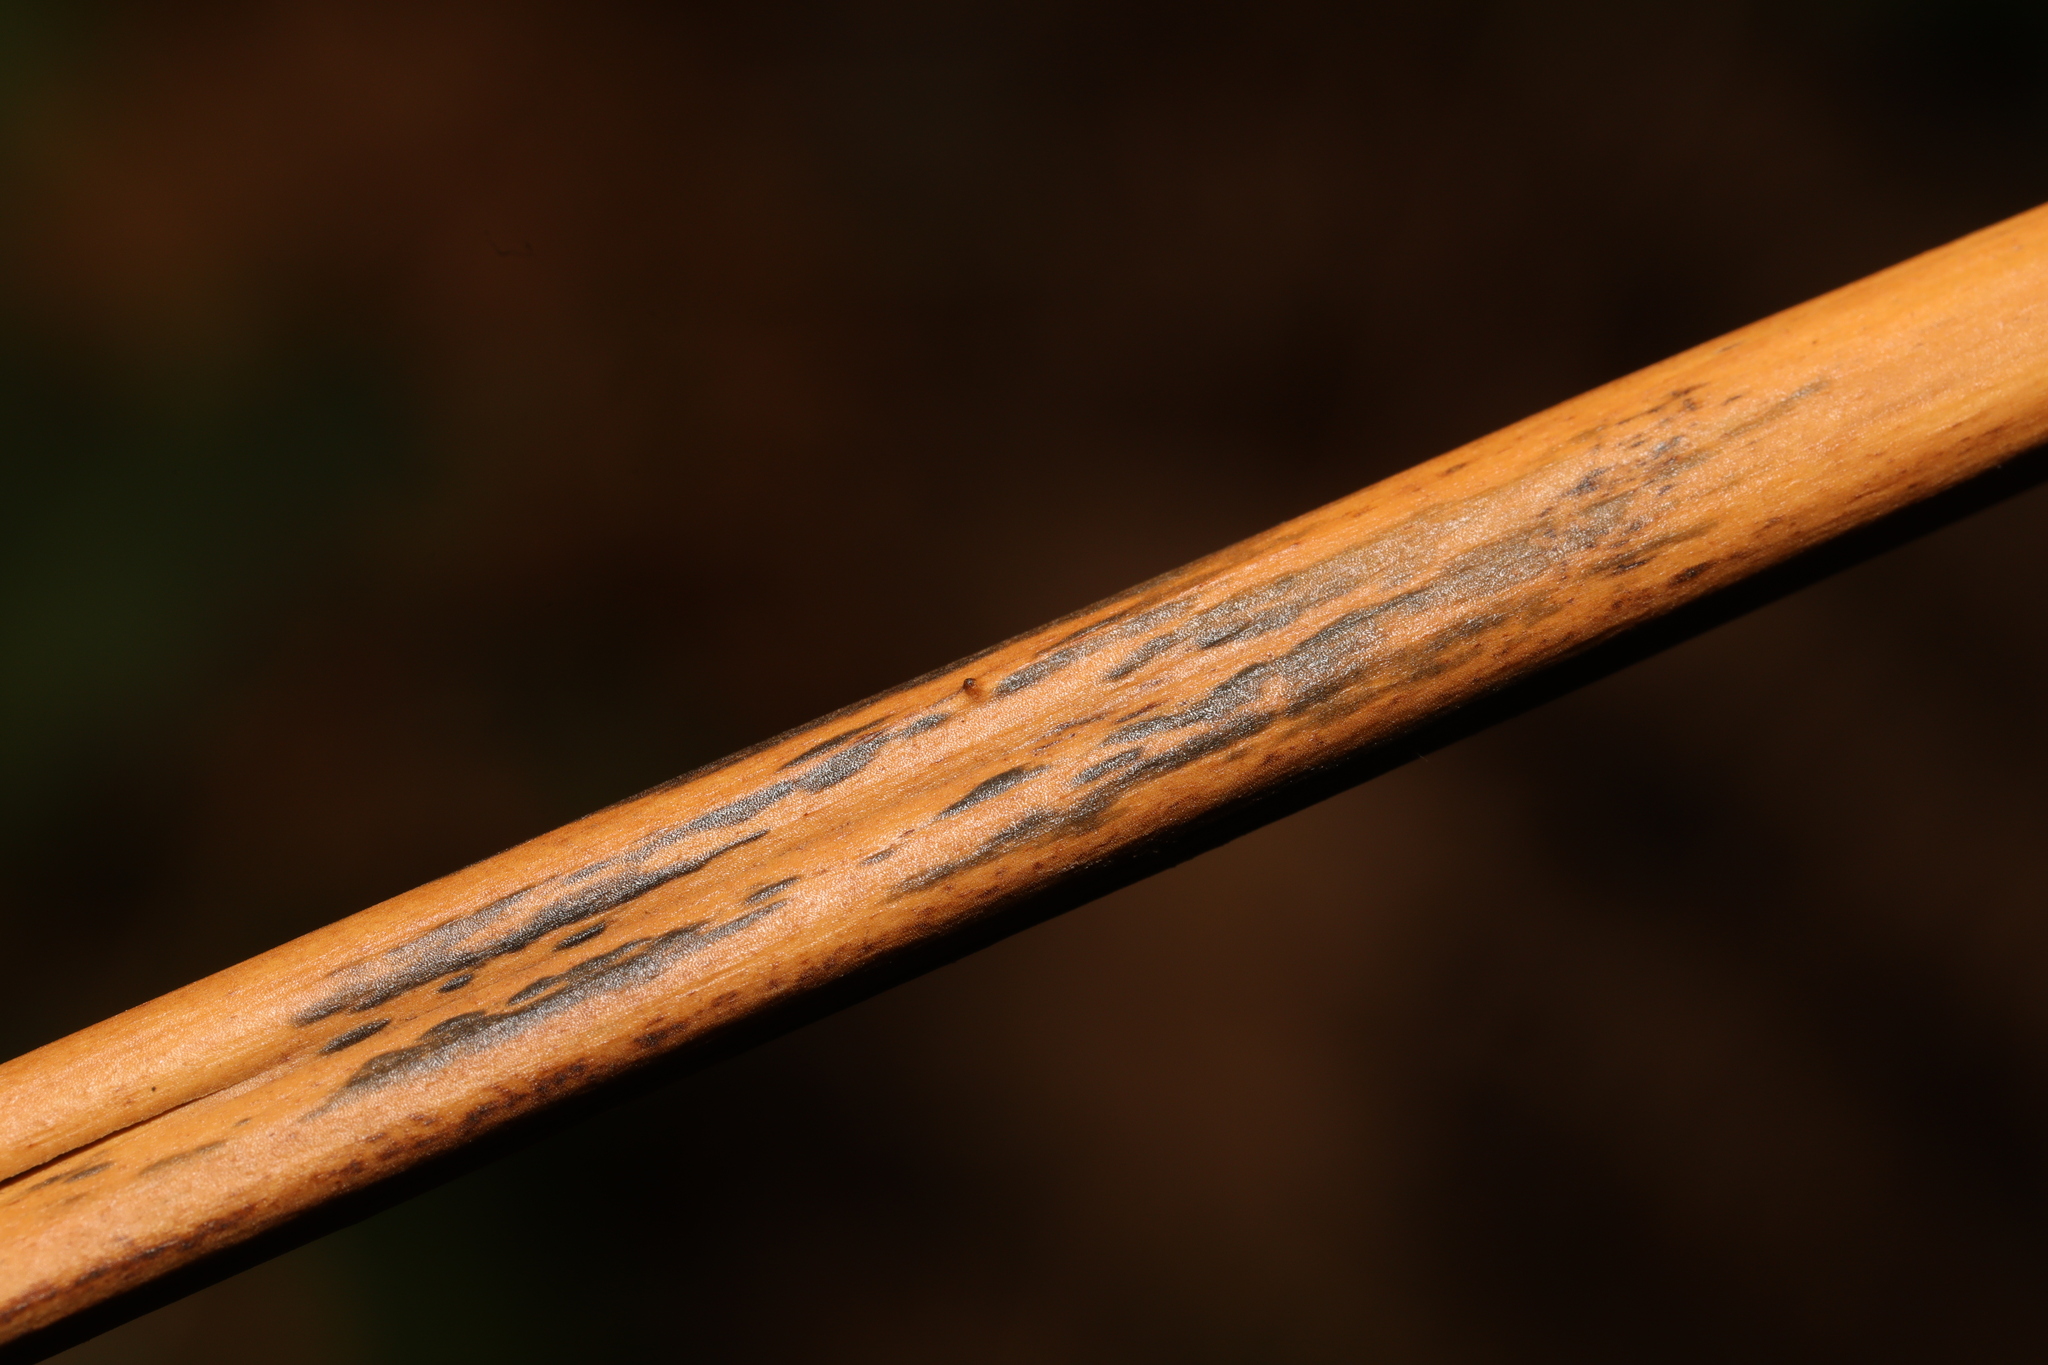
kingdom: Fungi
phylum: Ascomycota
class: Dothideomycetes
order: Pleosporales
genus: Rhopographus
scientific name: Rhopographus filicinus
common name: Bracken map
